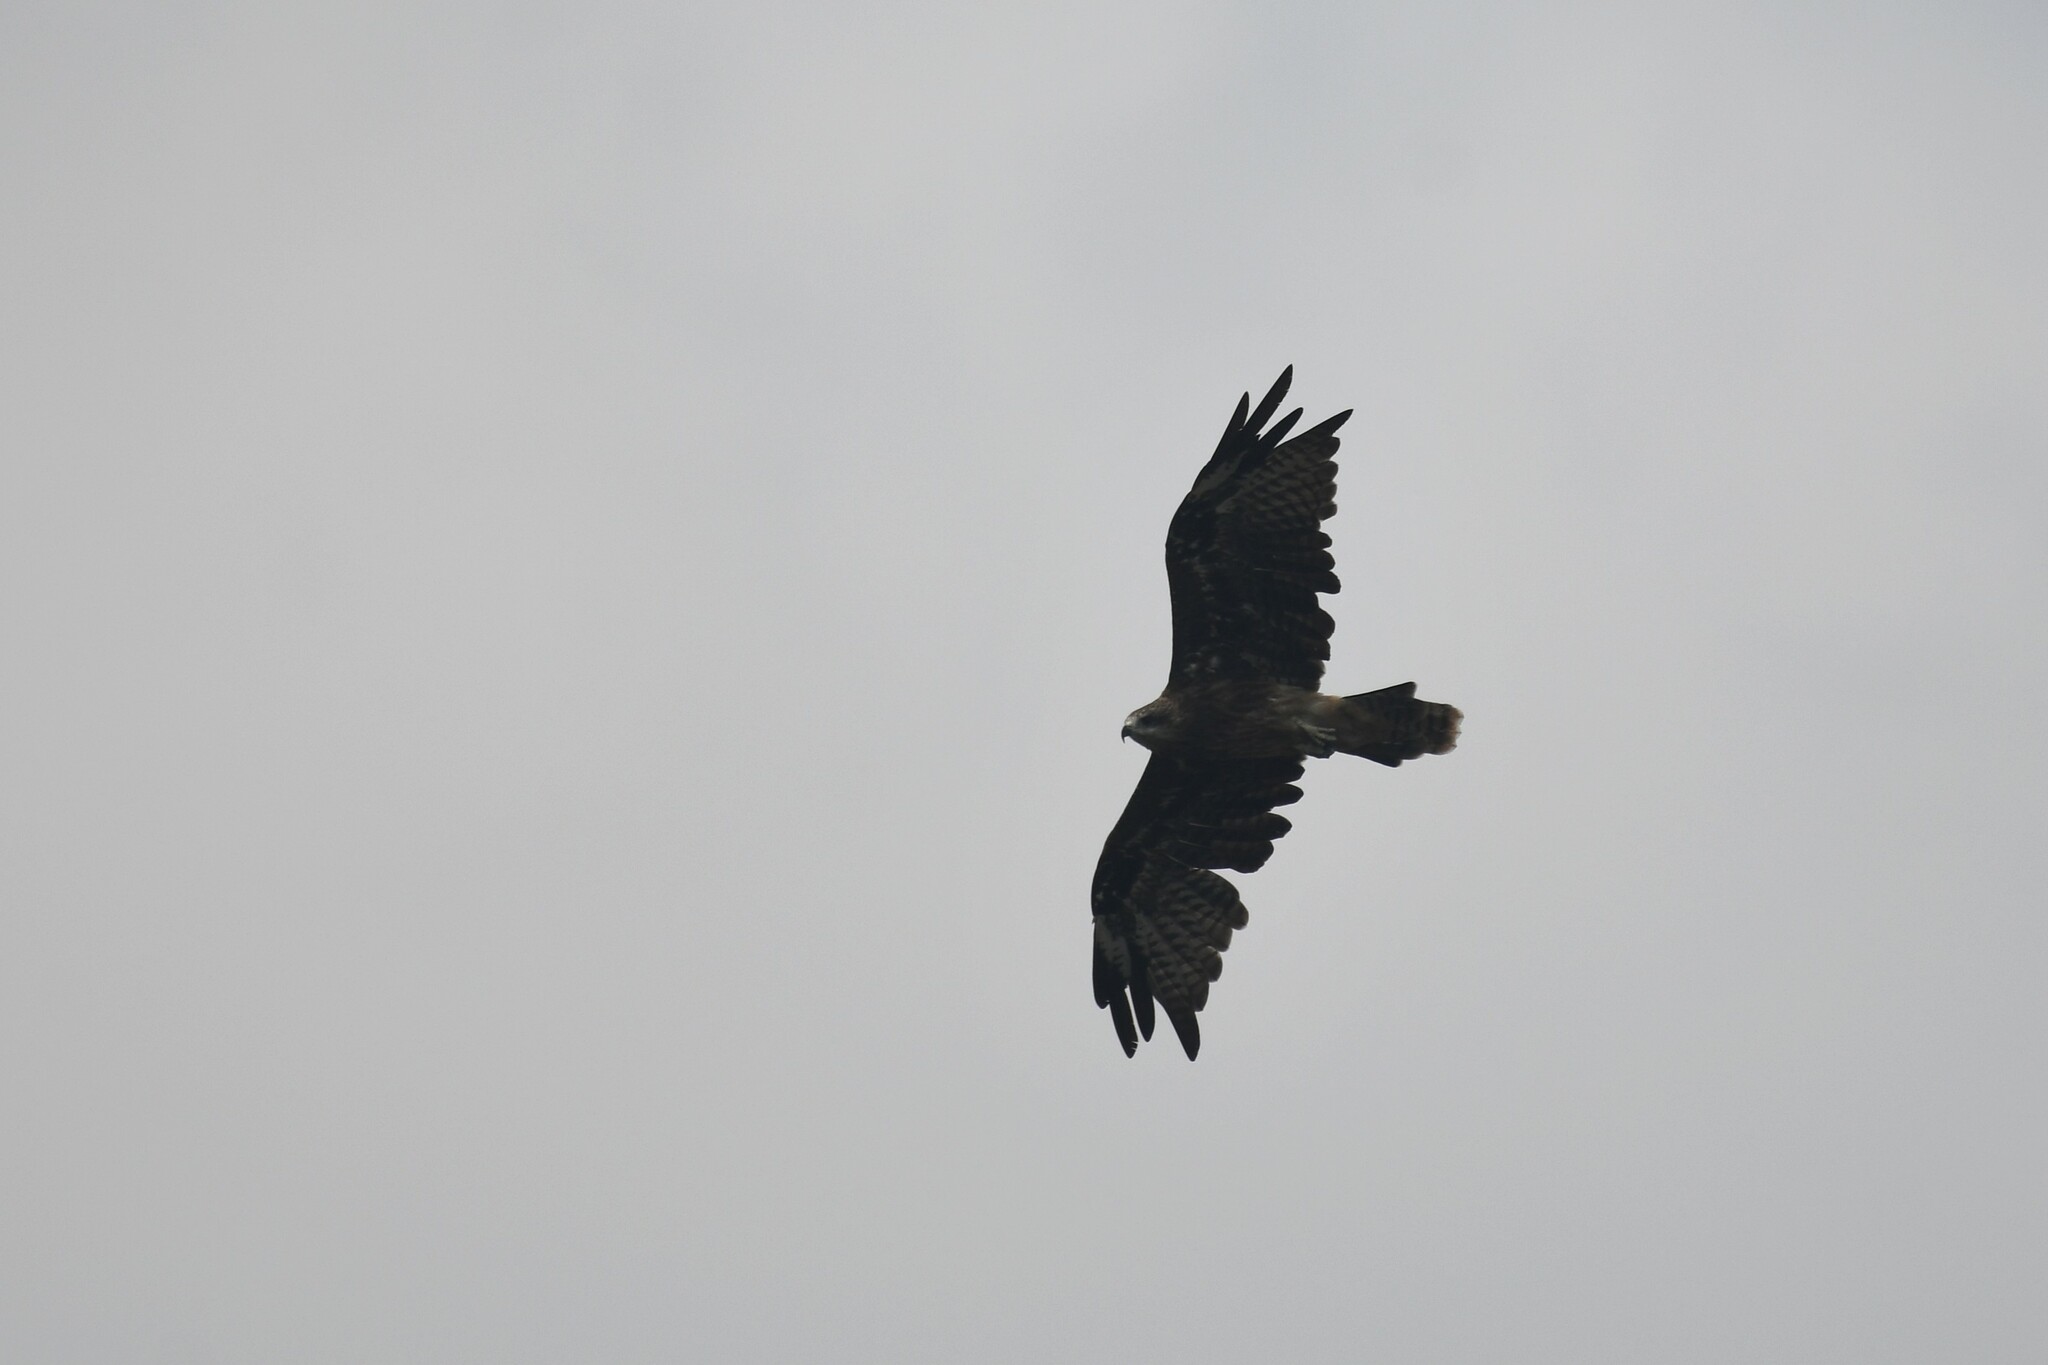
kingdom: Animalia
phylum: Chordata
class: Aves
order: Accipitriformes
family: Accipitridae
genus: Milvus
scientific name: Milvus migrans
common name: Black kite
